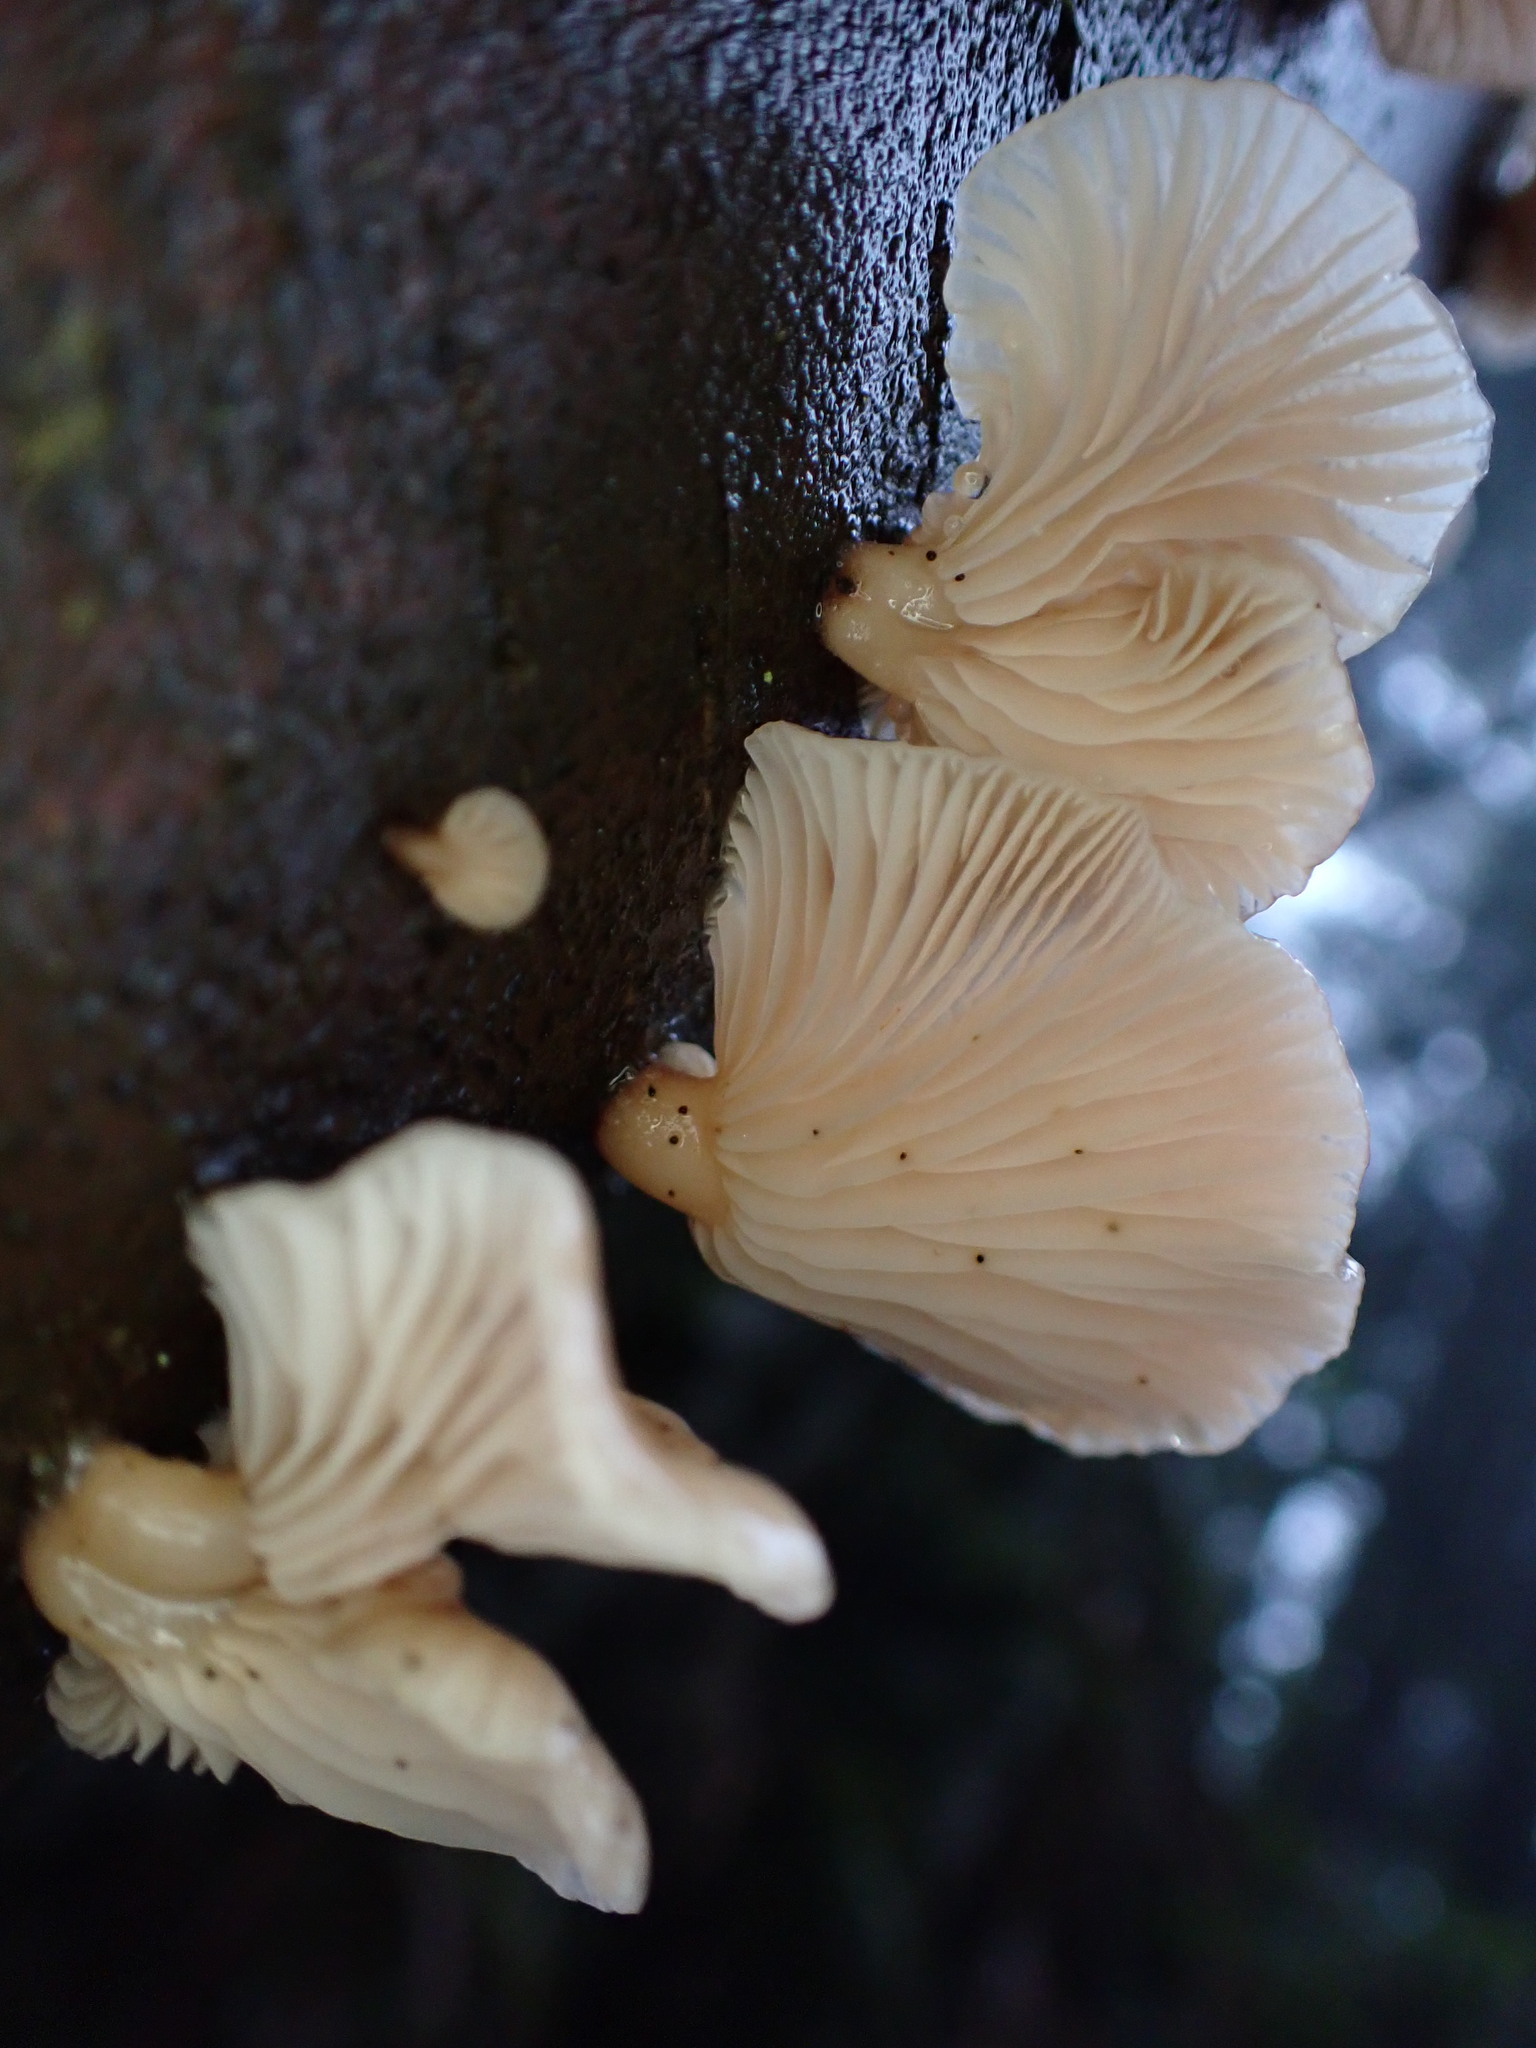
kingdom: Fungi
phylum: Basidiomycota
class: Agaricomycetes
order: Agaricales
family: Mycenaceae
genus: Panellus
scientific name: Panellus longinquus
